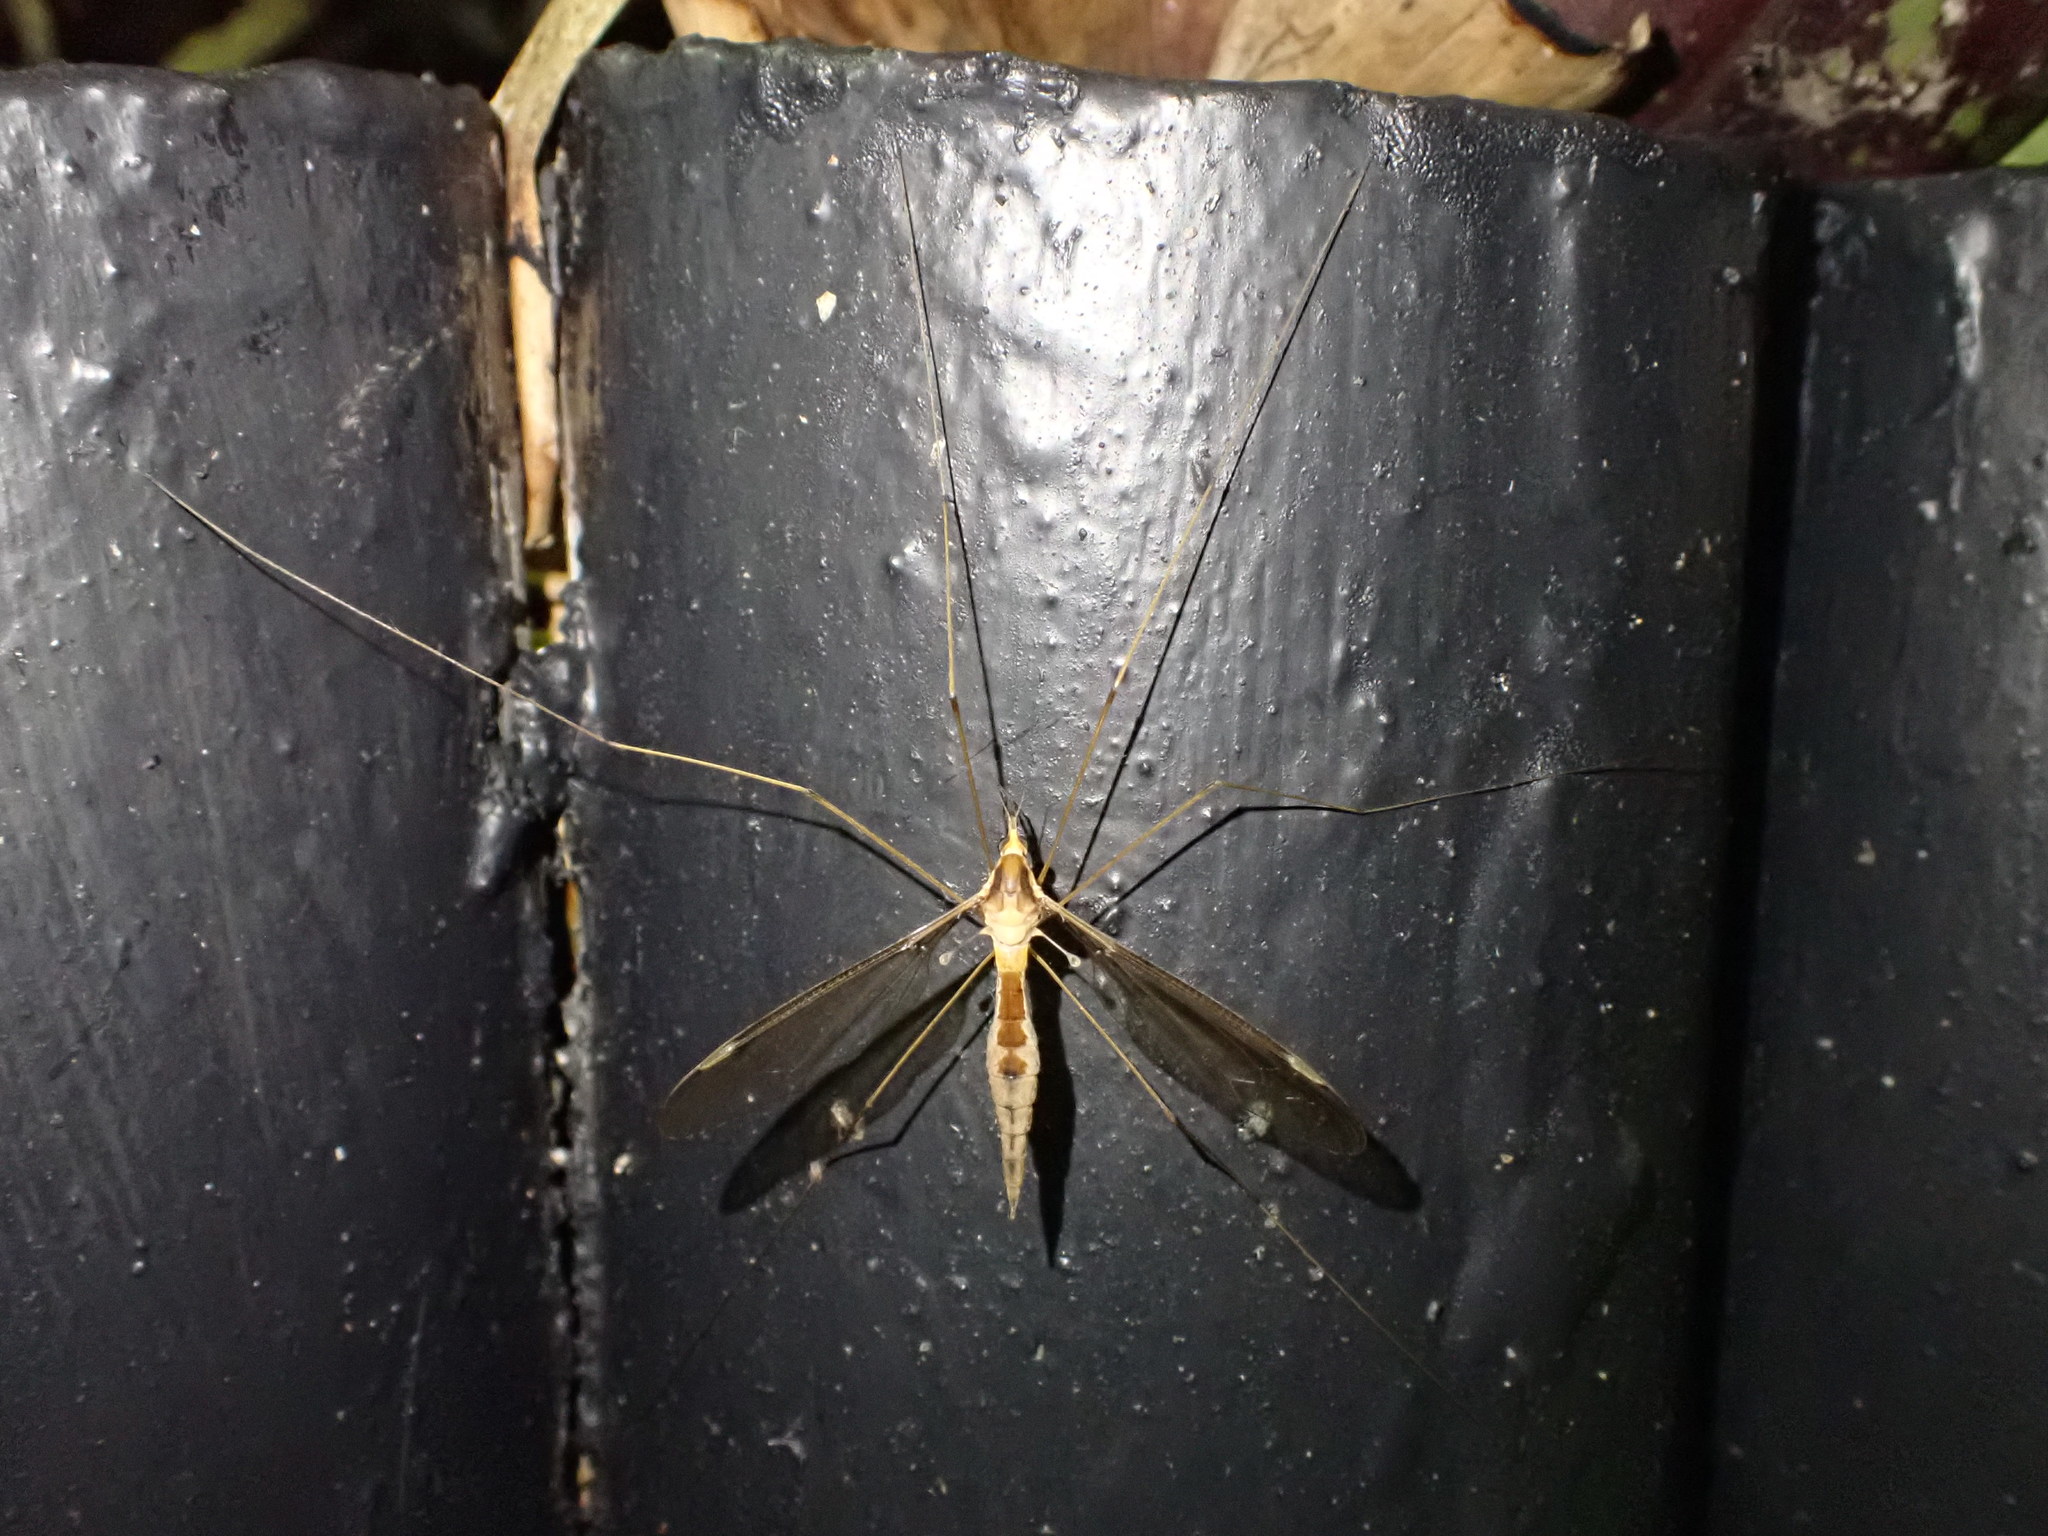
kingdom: Animalia
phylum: Arthropoda
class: Insecta
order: Diptera
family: Tipulidae
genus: Leptotarsus
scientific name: Leptotarsus albistigma
